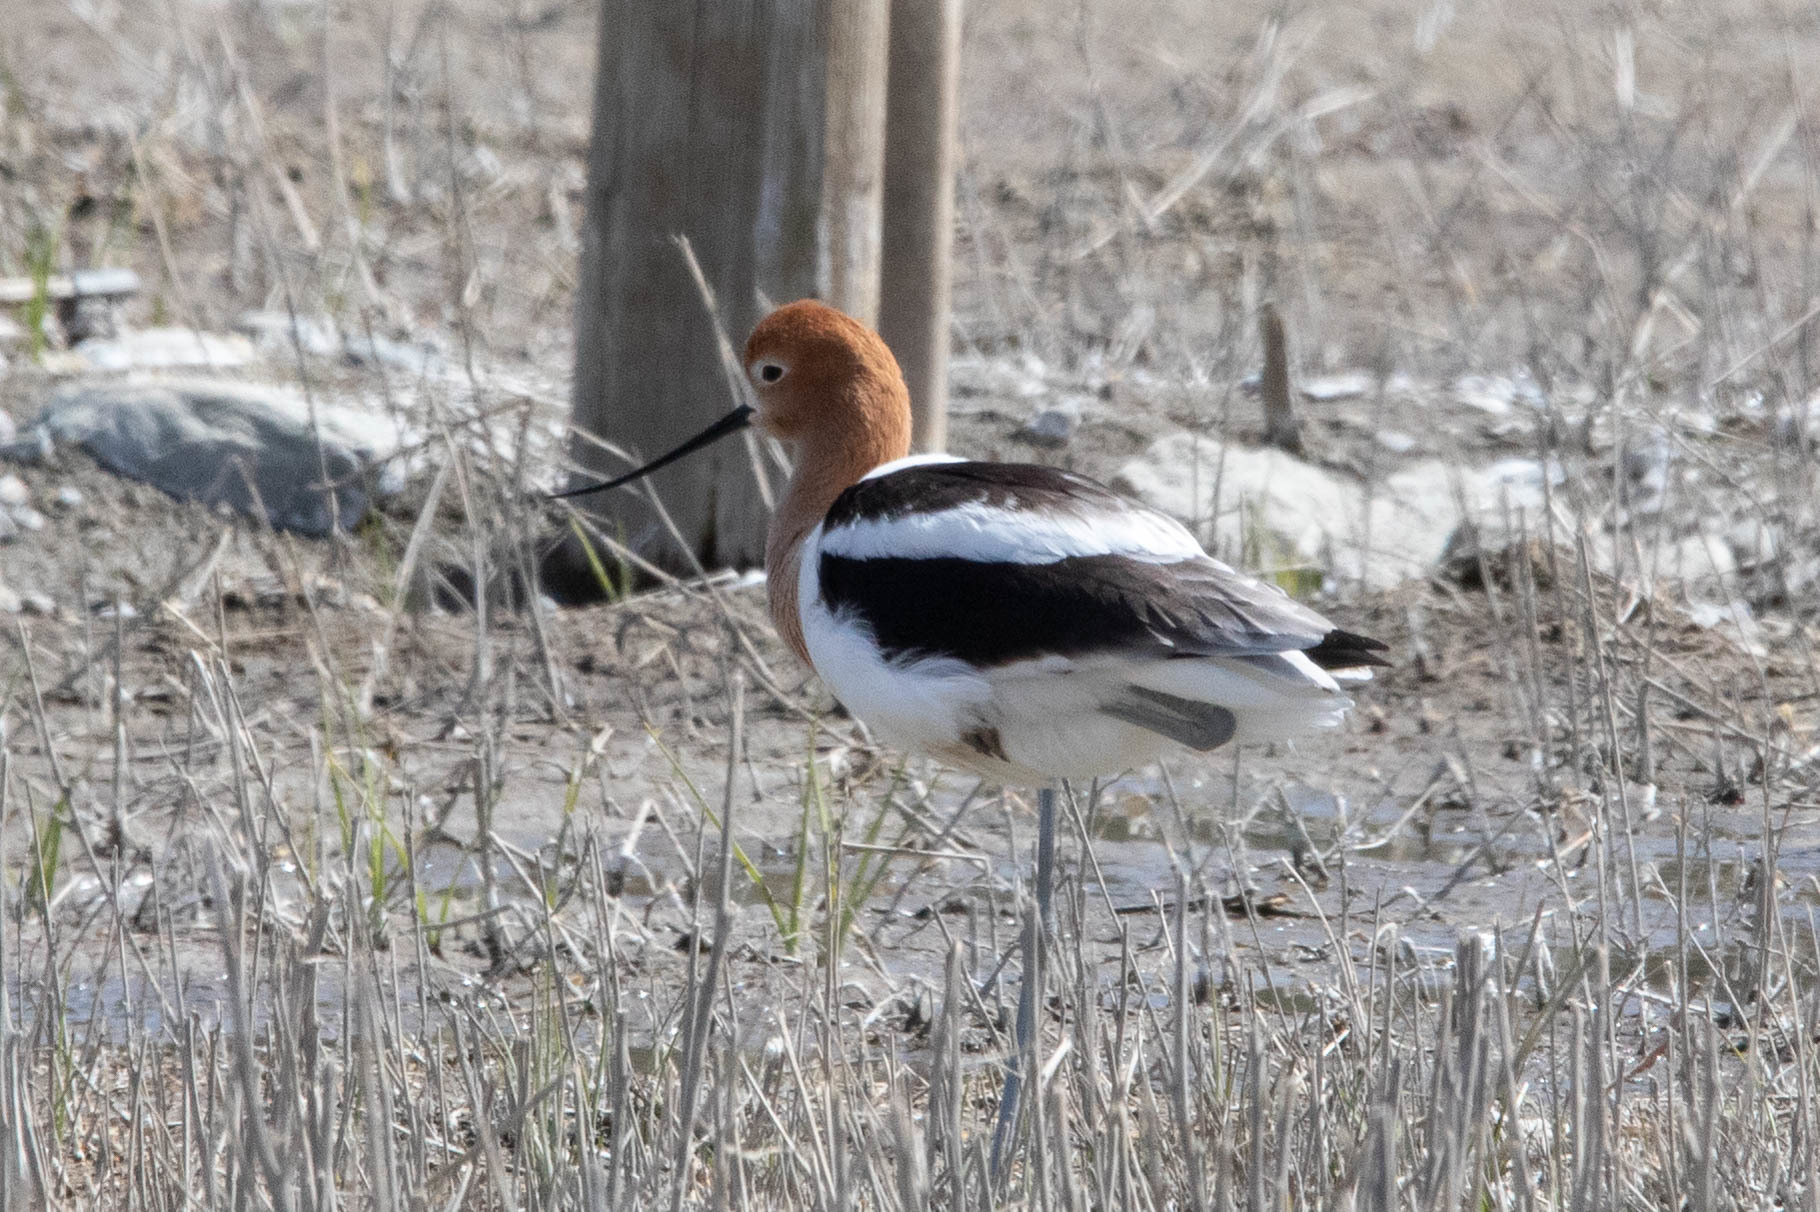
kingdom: Animalia
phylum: Chordata
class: Aves
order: Charadriiformes
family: Recurvirostridae
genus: Recurvirostra
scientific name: Recurvirostra americana
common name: American avocet
